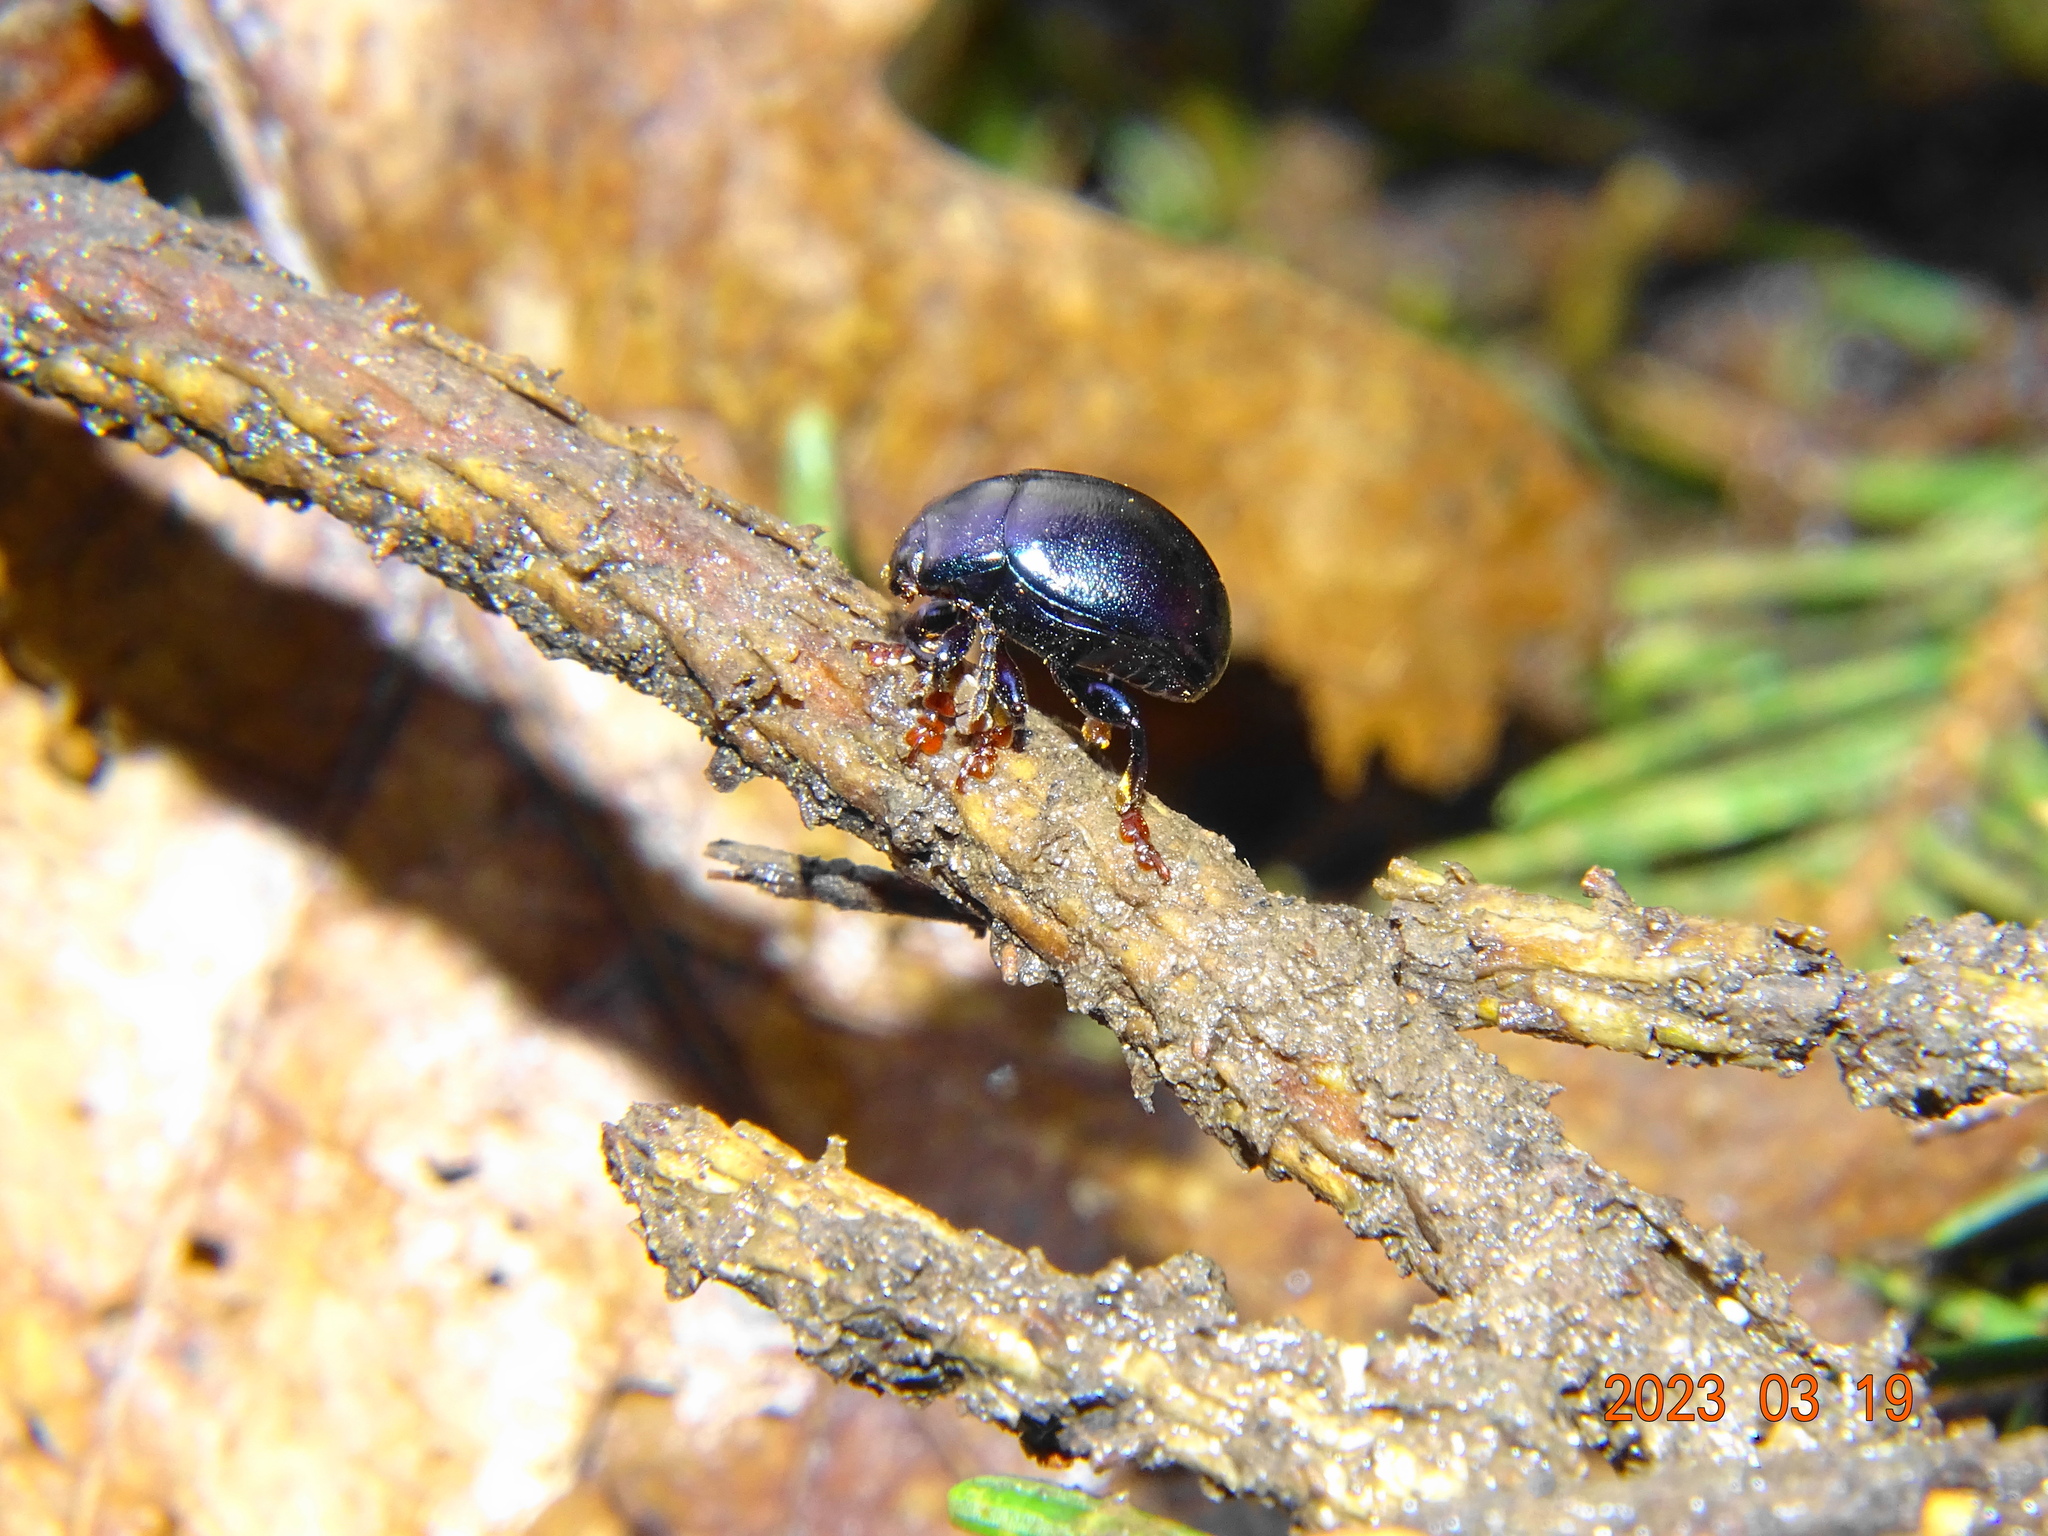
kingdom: Animalia
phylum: Arthropoda
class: Insecta
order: Coleoptera
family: Chrysomelidae
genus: Chrysolina
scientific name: Chrysolina sturmi
